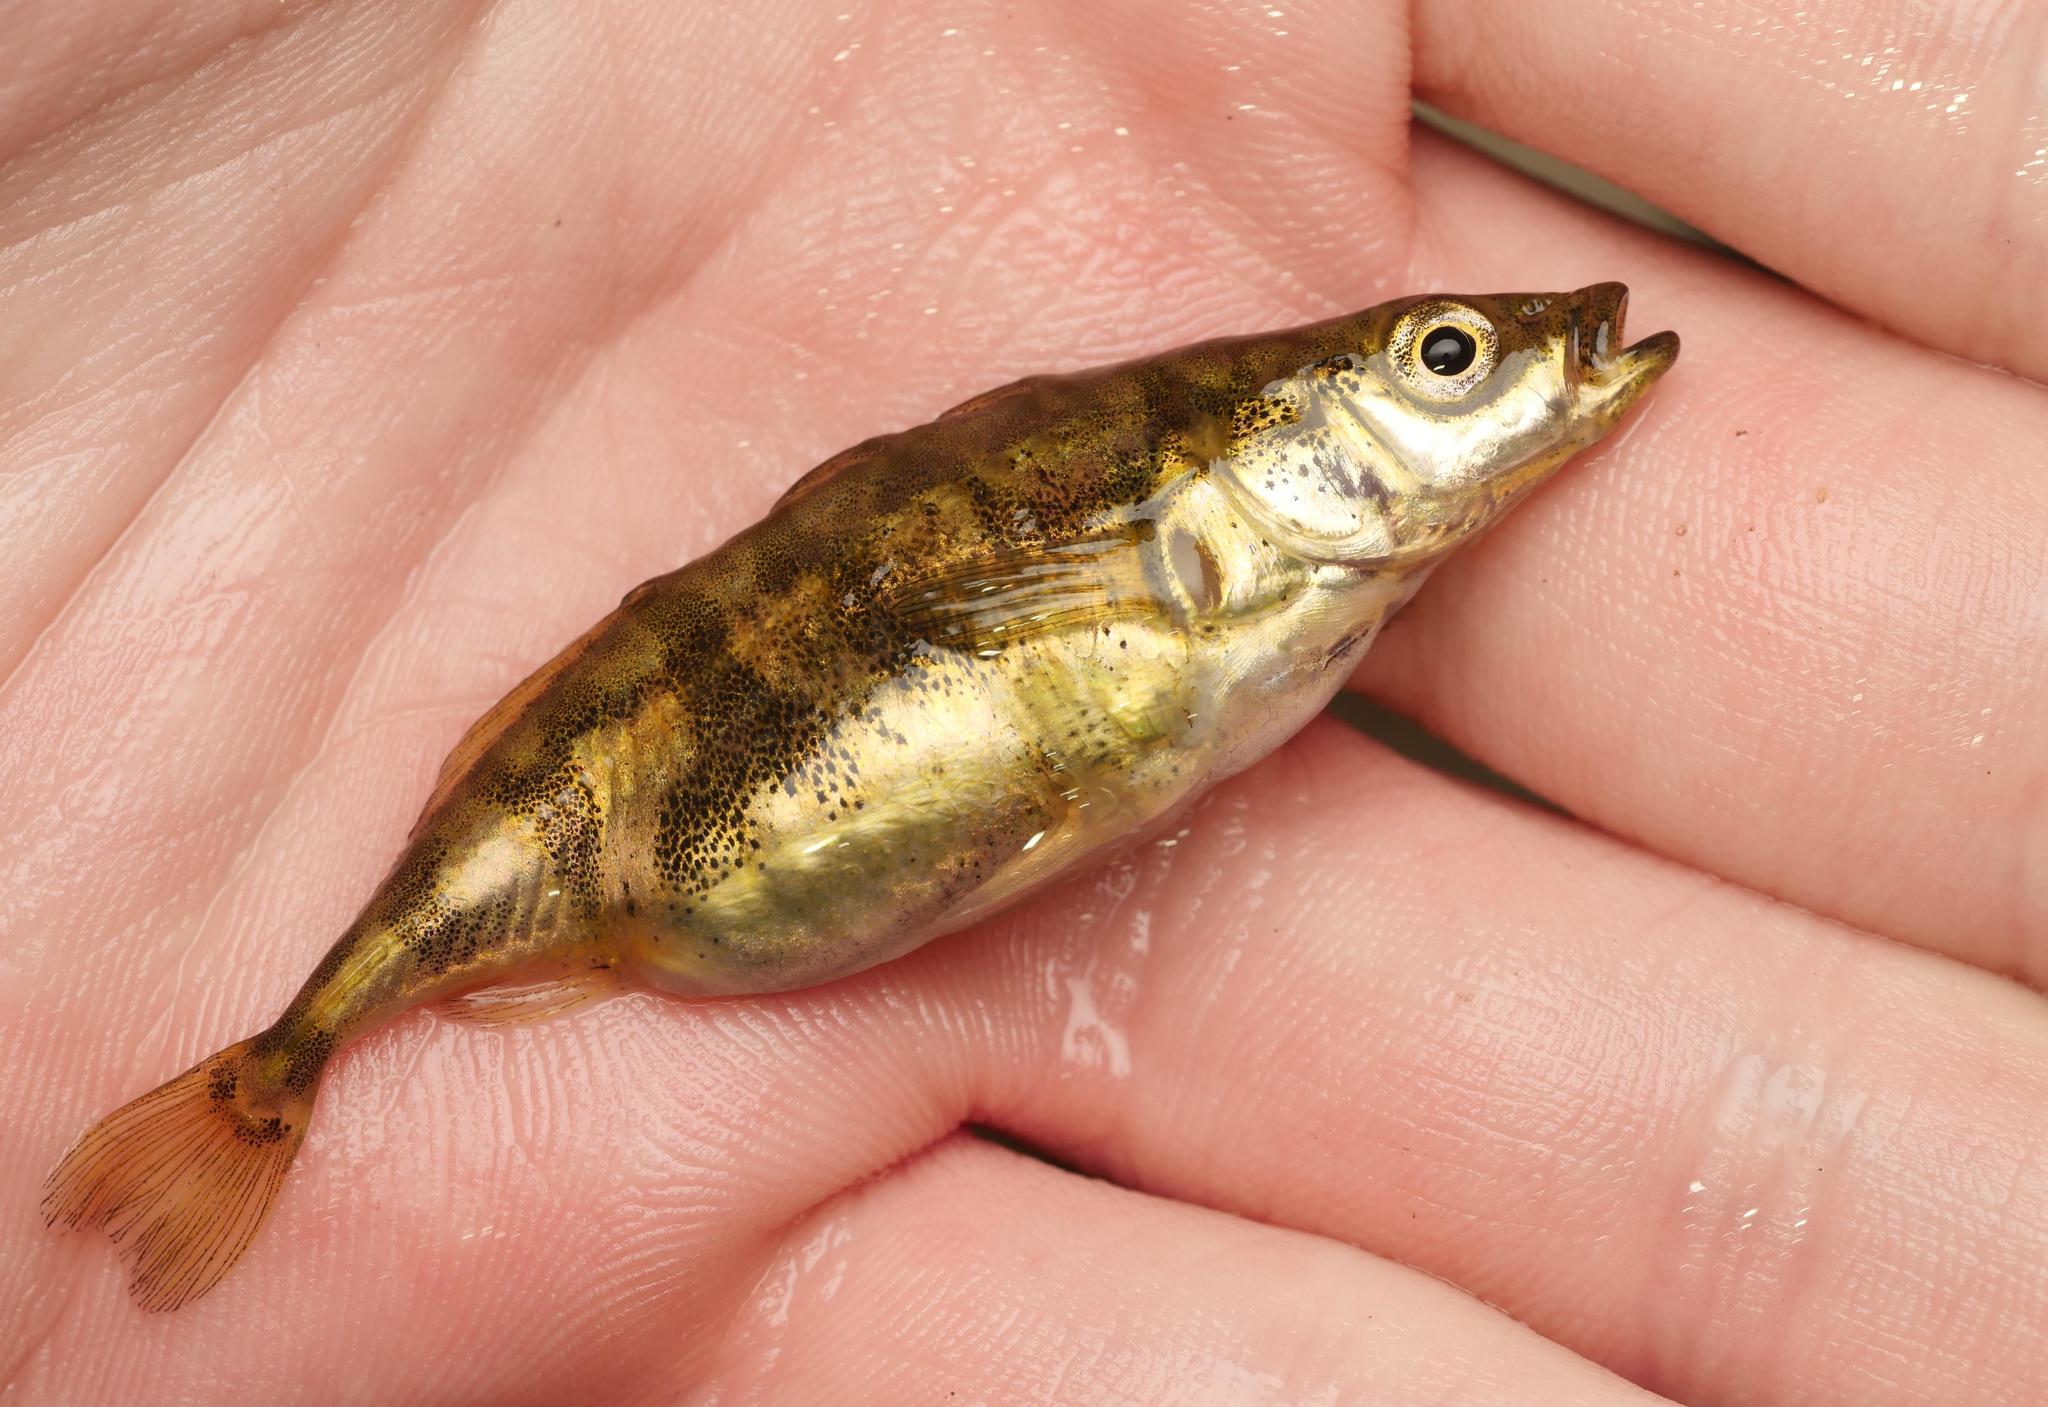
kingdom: Animalia
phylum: Chordata
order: Gasterosteiformes
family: Gasterosteidae
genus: Gasterosteus
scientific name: Gasterosteus aculeatus
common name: Three-spined stickleback
